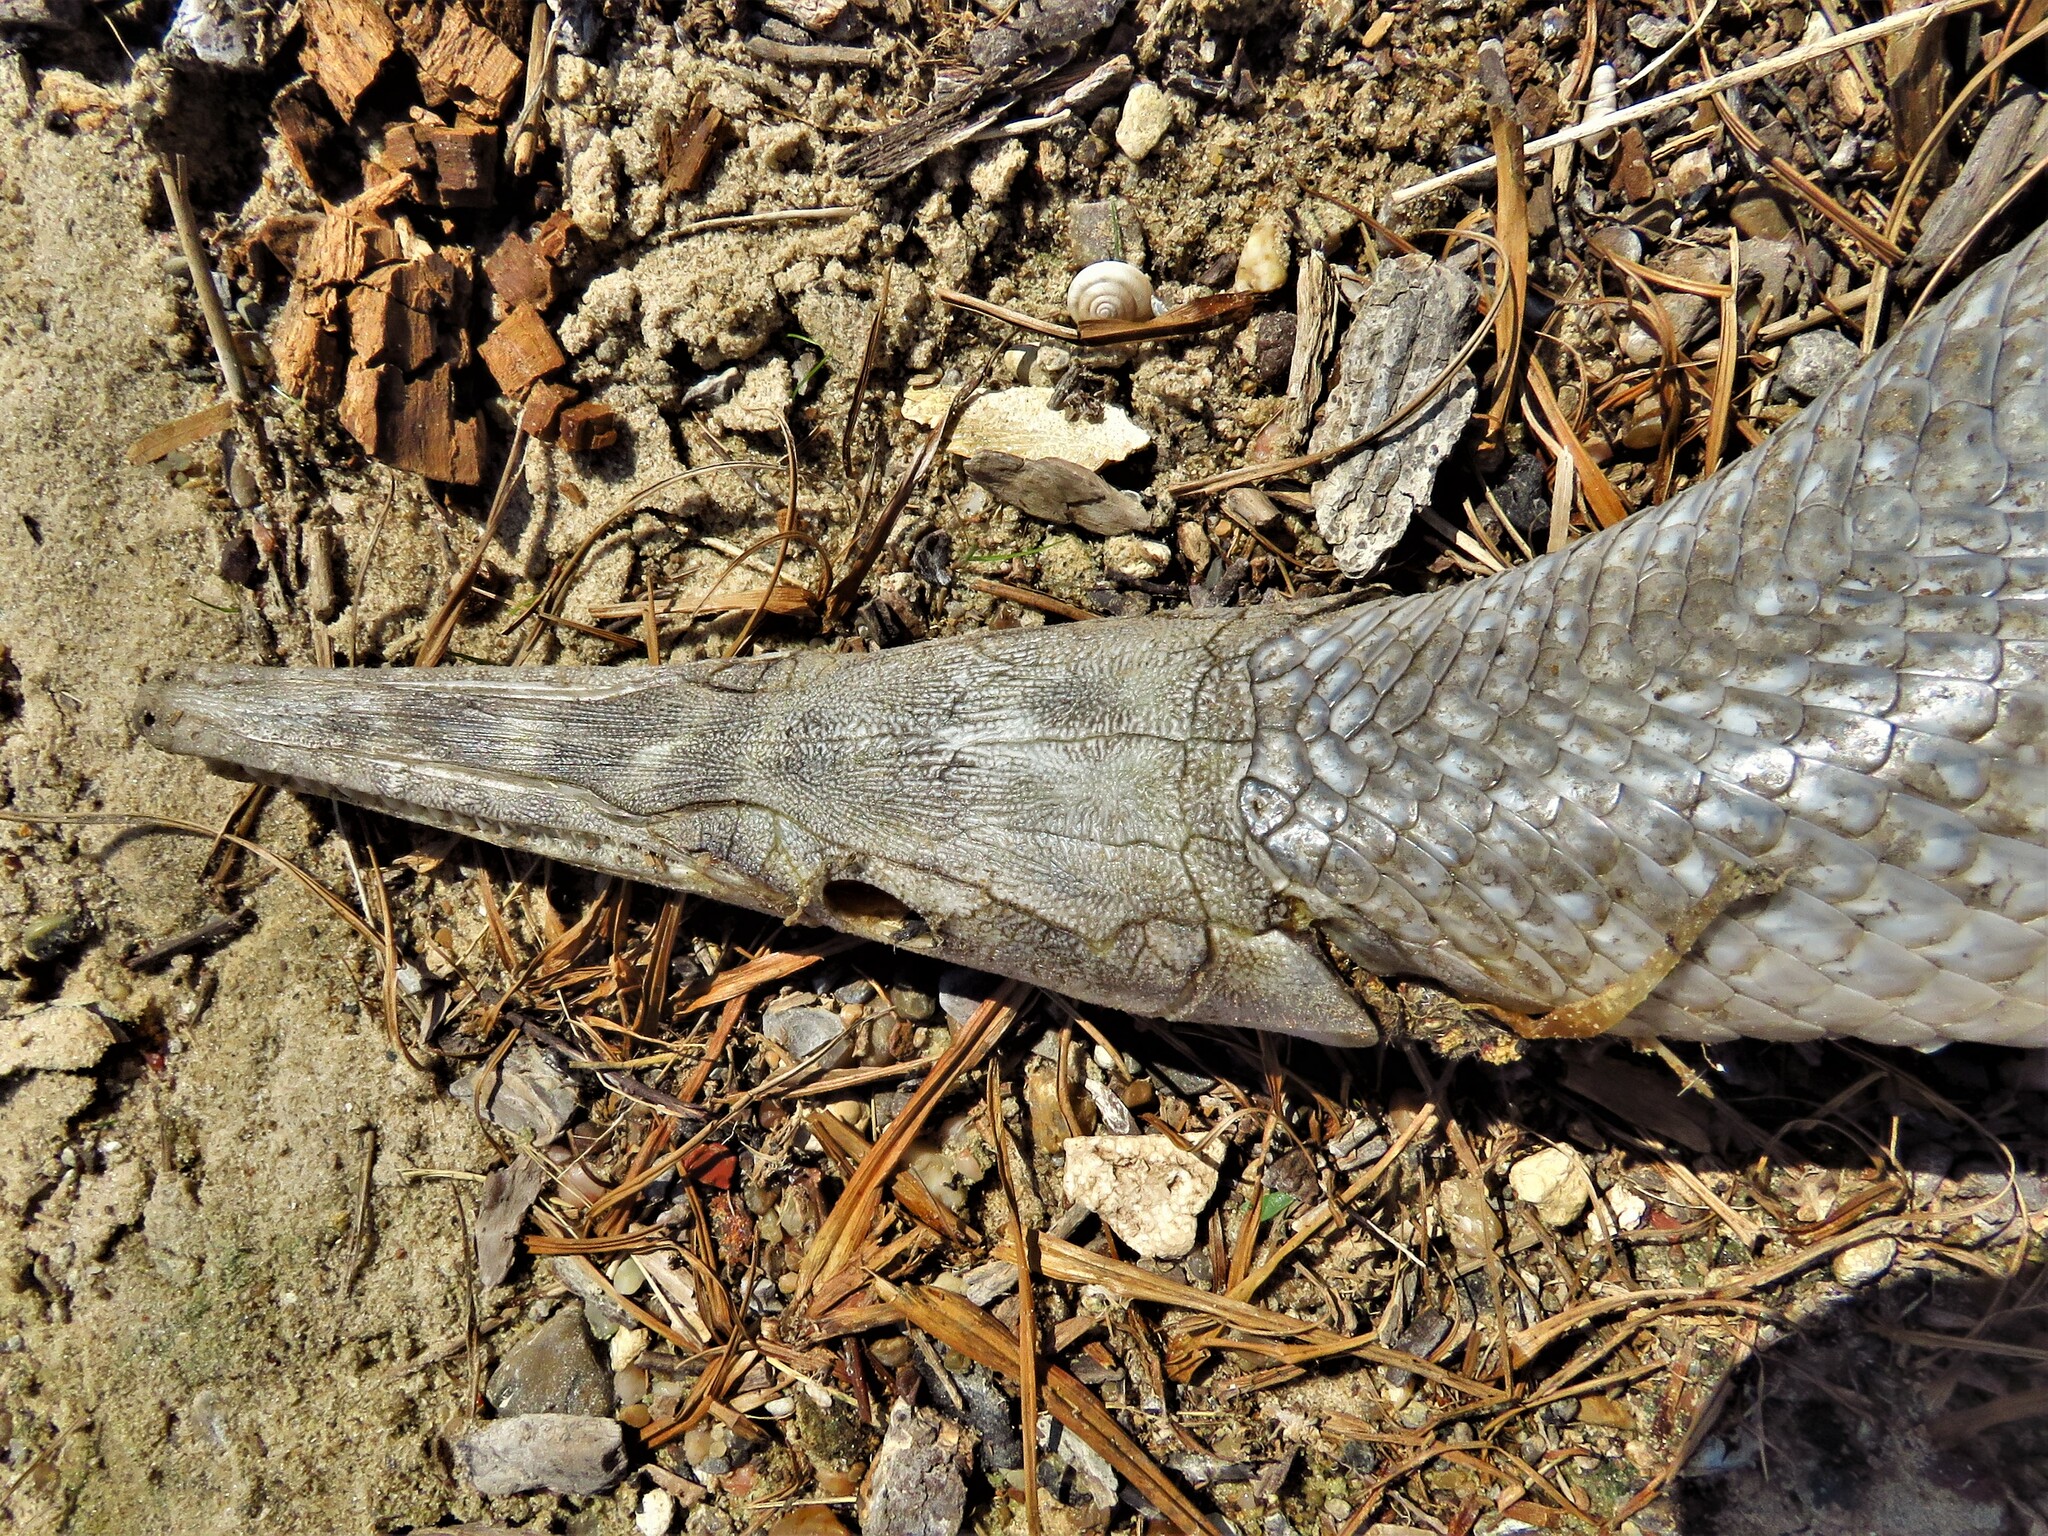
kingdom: Animalia
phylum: Chordata
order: Lepisosteiformes
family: Lepisosteidae
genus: Lepisosteus
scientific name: Lepisosteus oculatus
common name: Spotted gar
